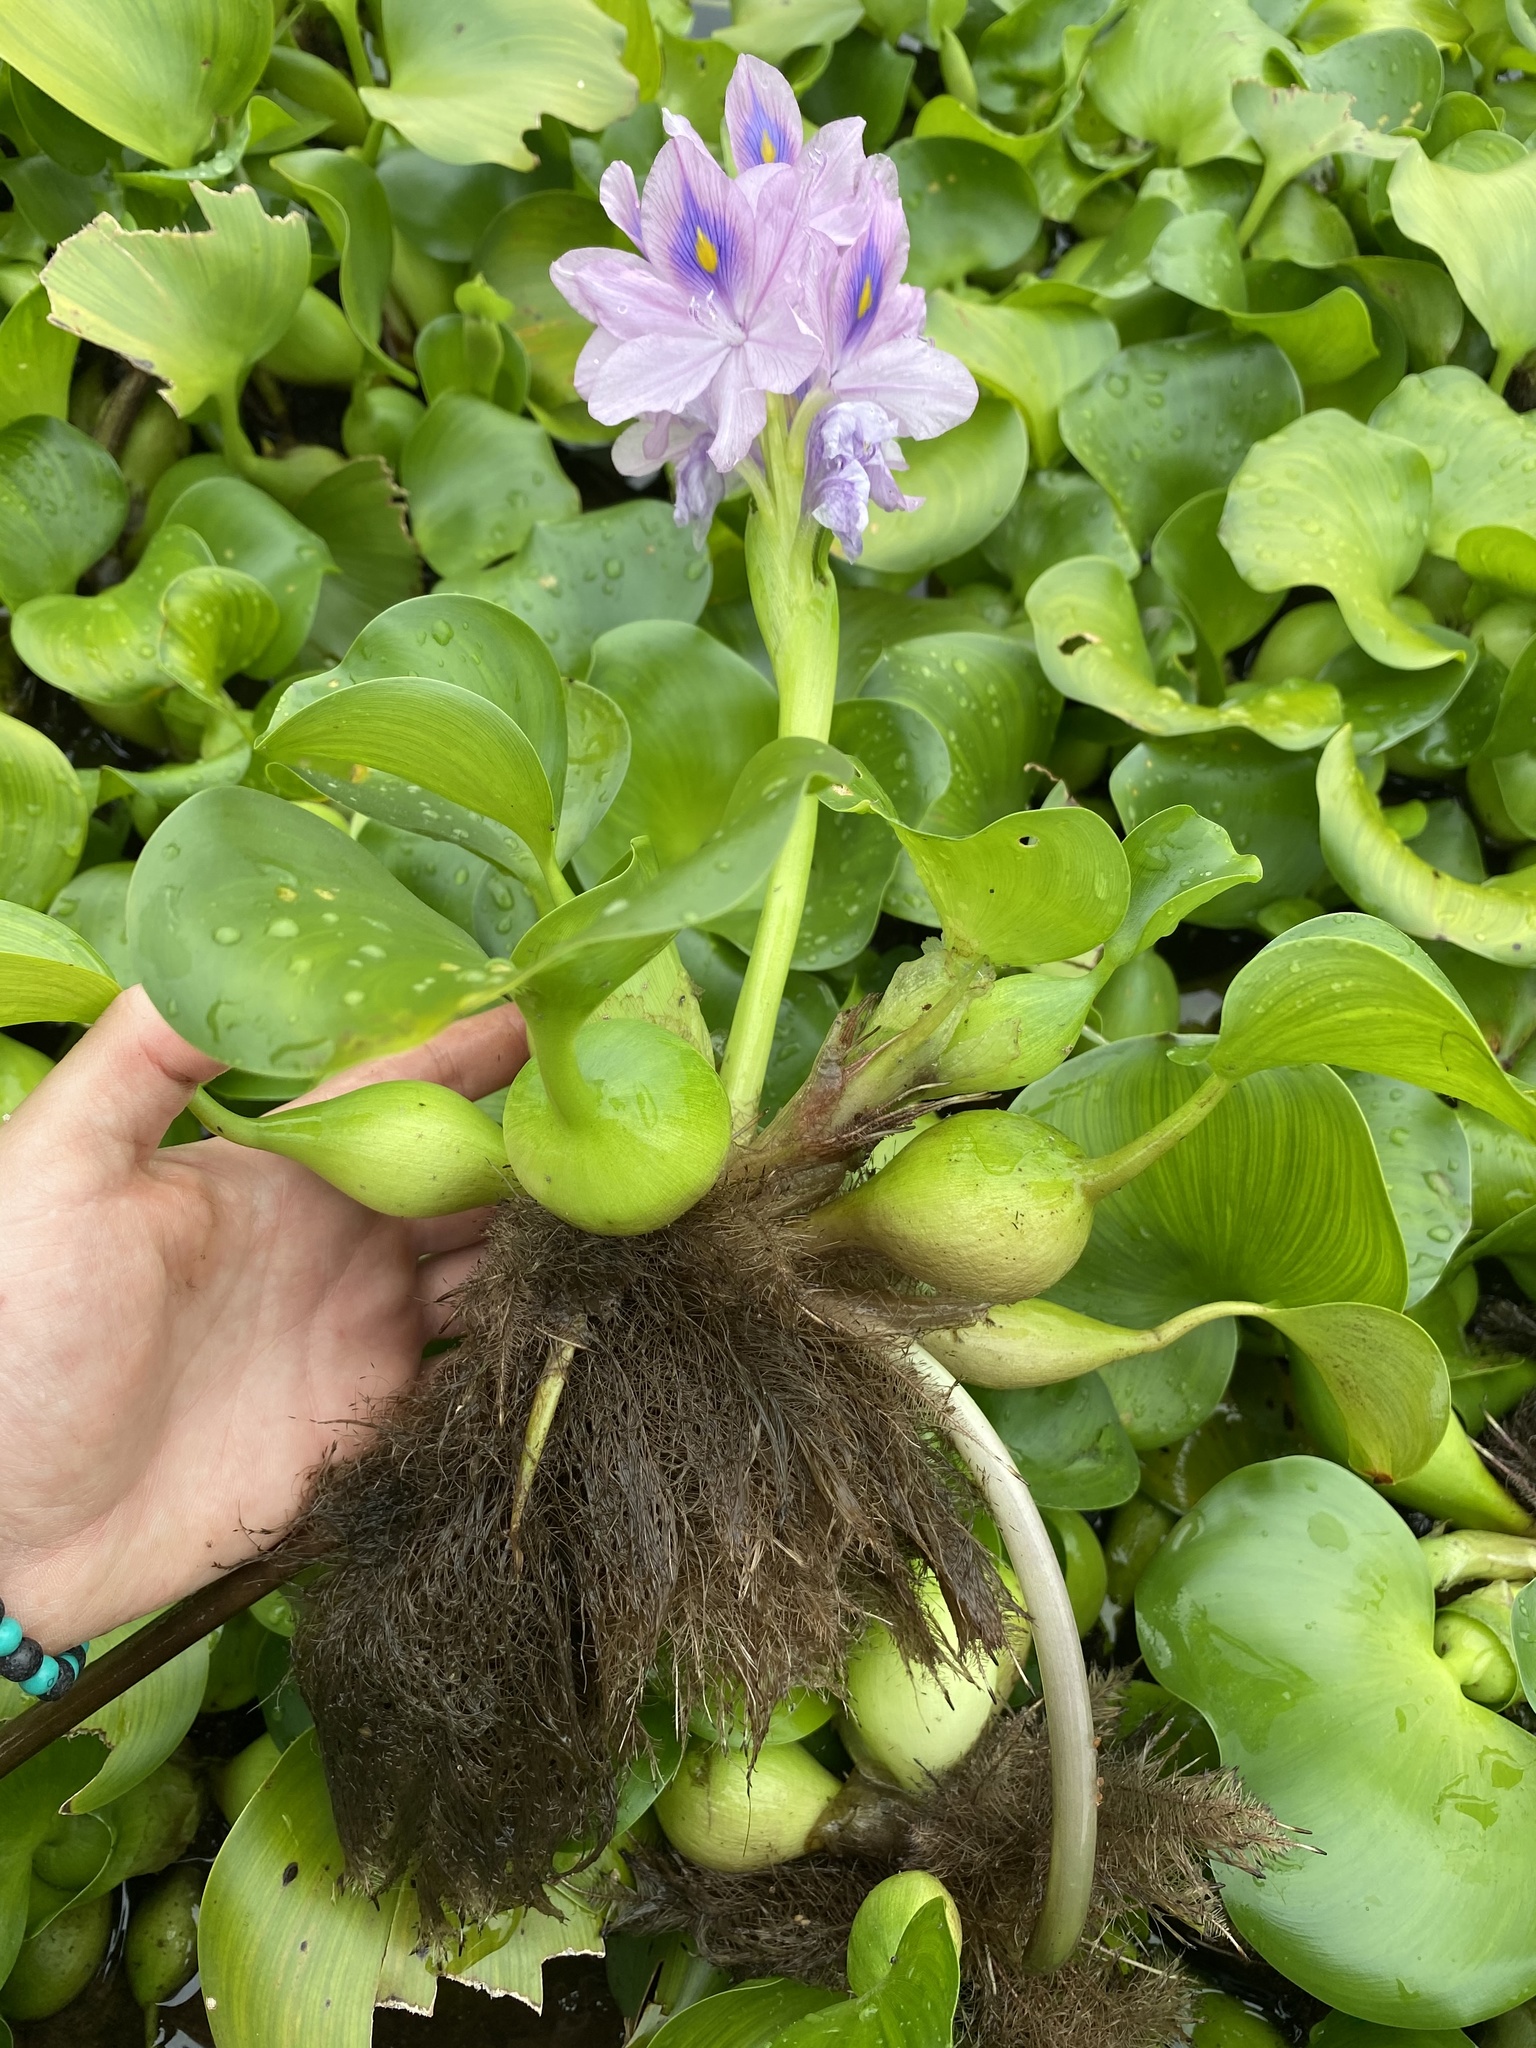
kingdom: Plantae
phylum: Tracheophyta
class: Liliopsida
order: Commelinales
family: Pontederiaceae
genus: Pontederia
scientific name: Pontederia crassipes
